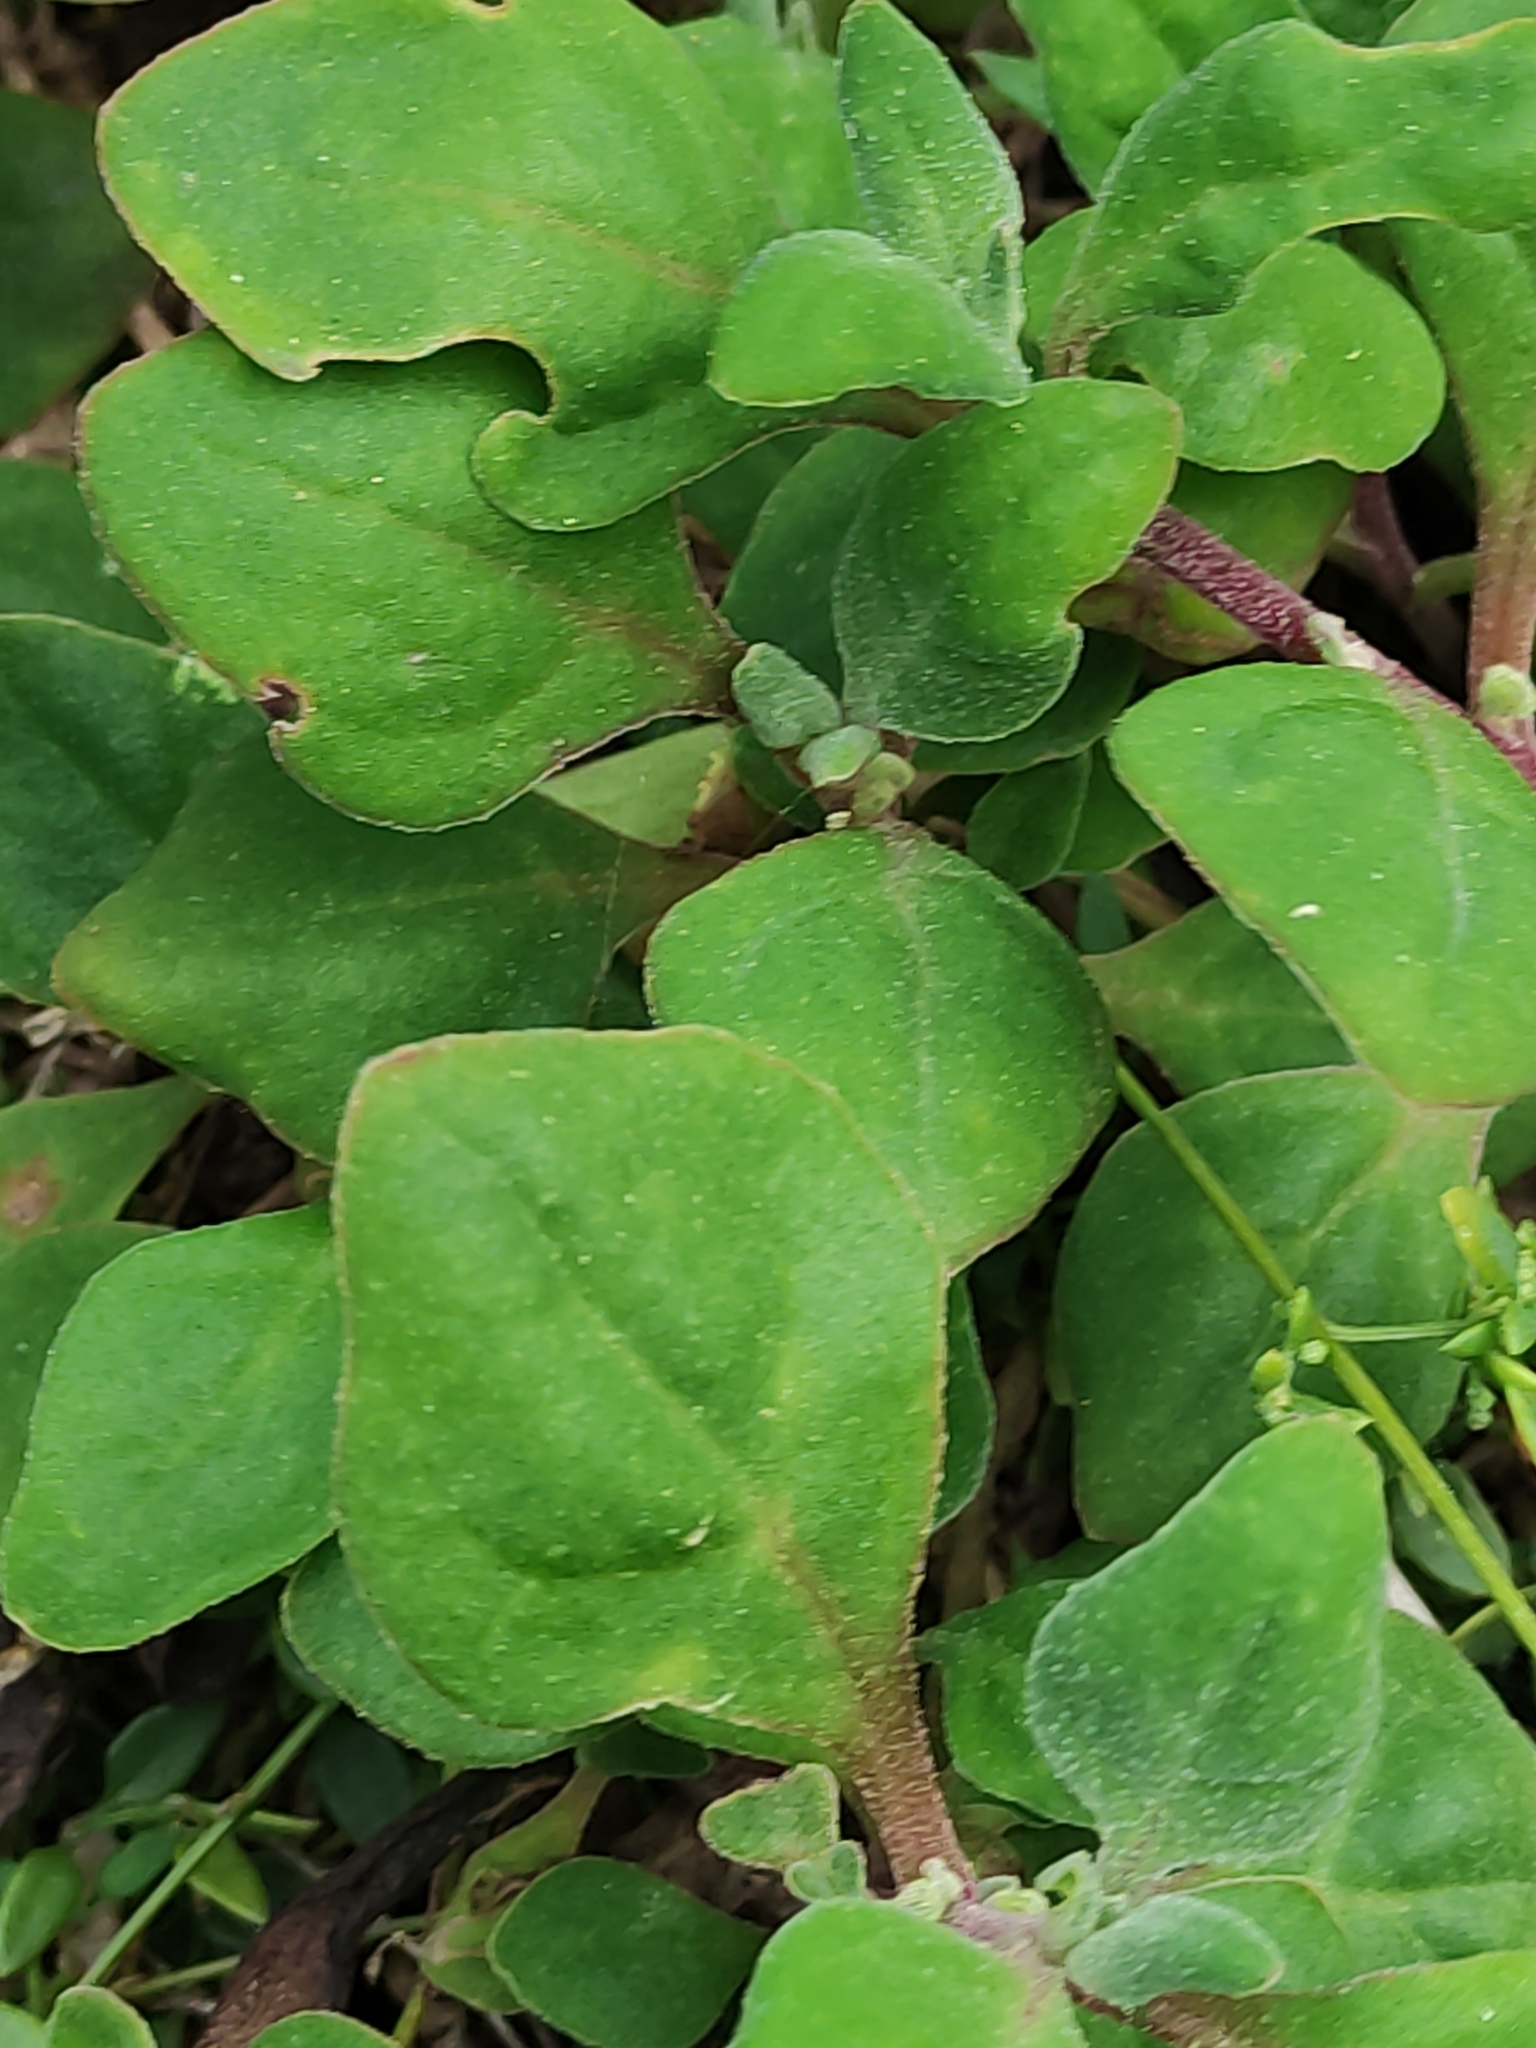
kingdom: Plantae
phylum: Tracheophyta
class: Magnoliopsida
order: Caryophyllales
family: Aizoaceae
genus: Tetragonia
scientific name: Tetragonia implexicoma
